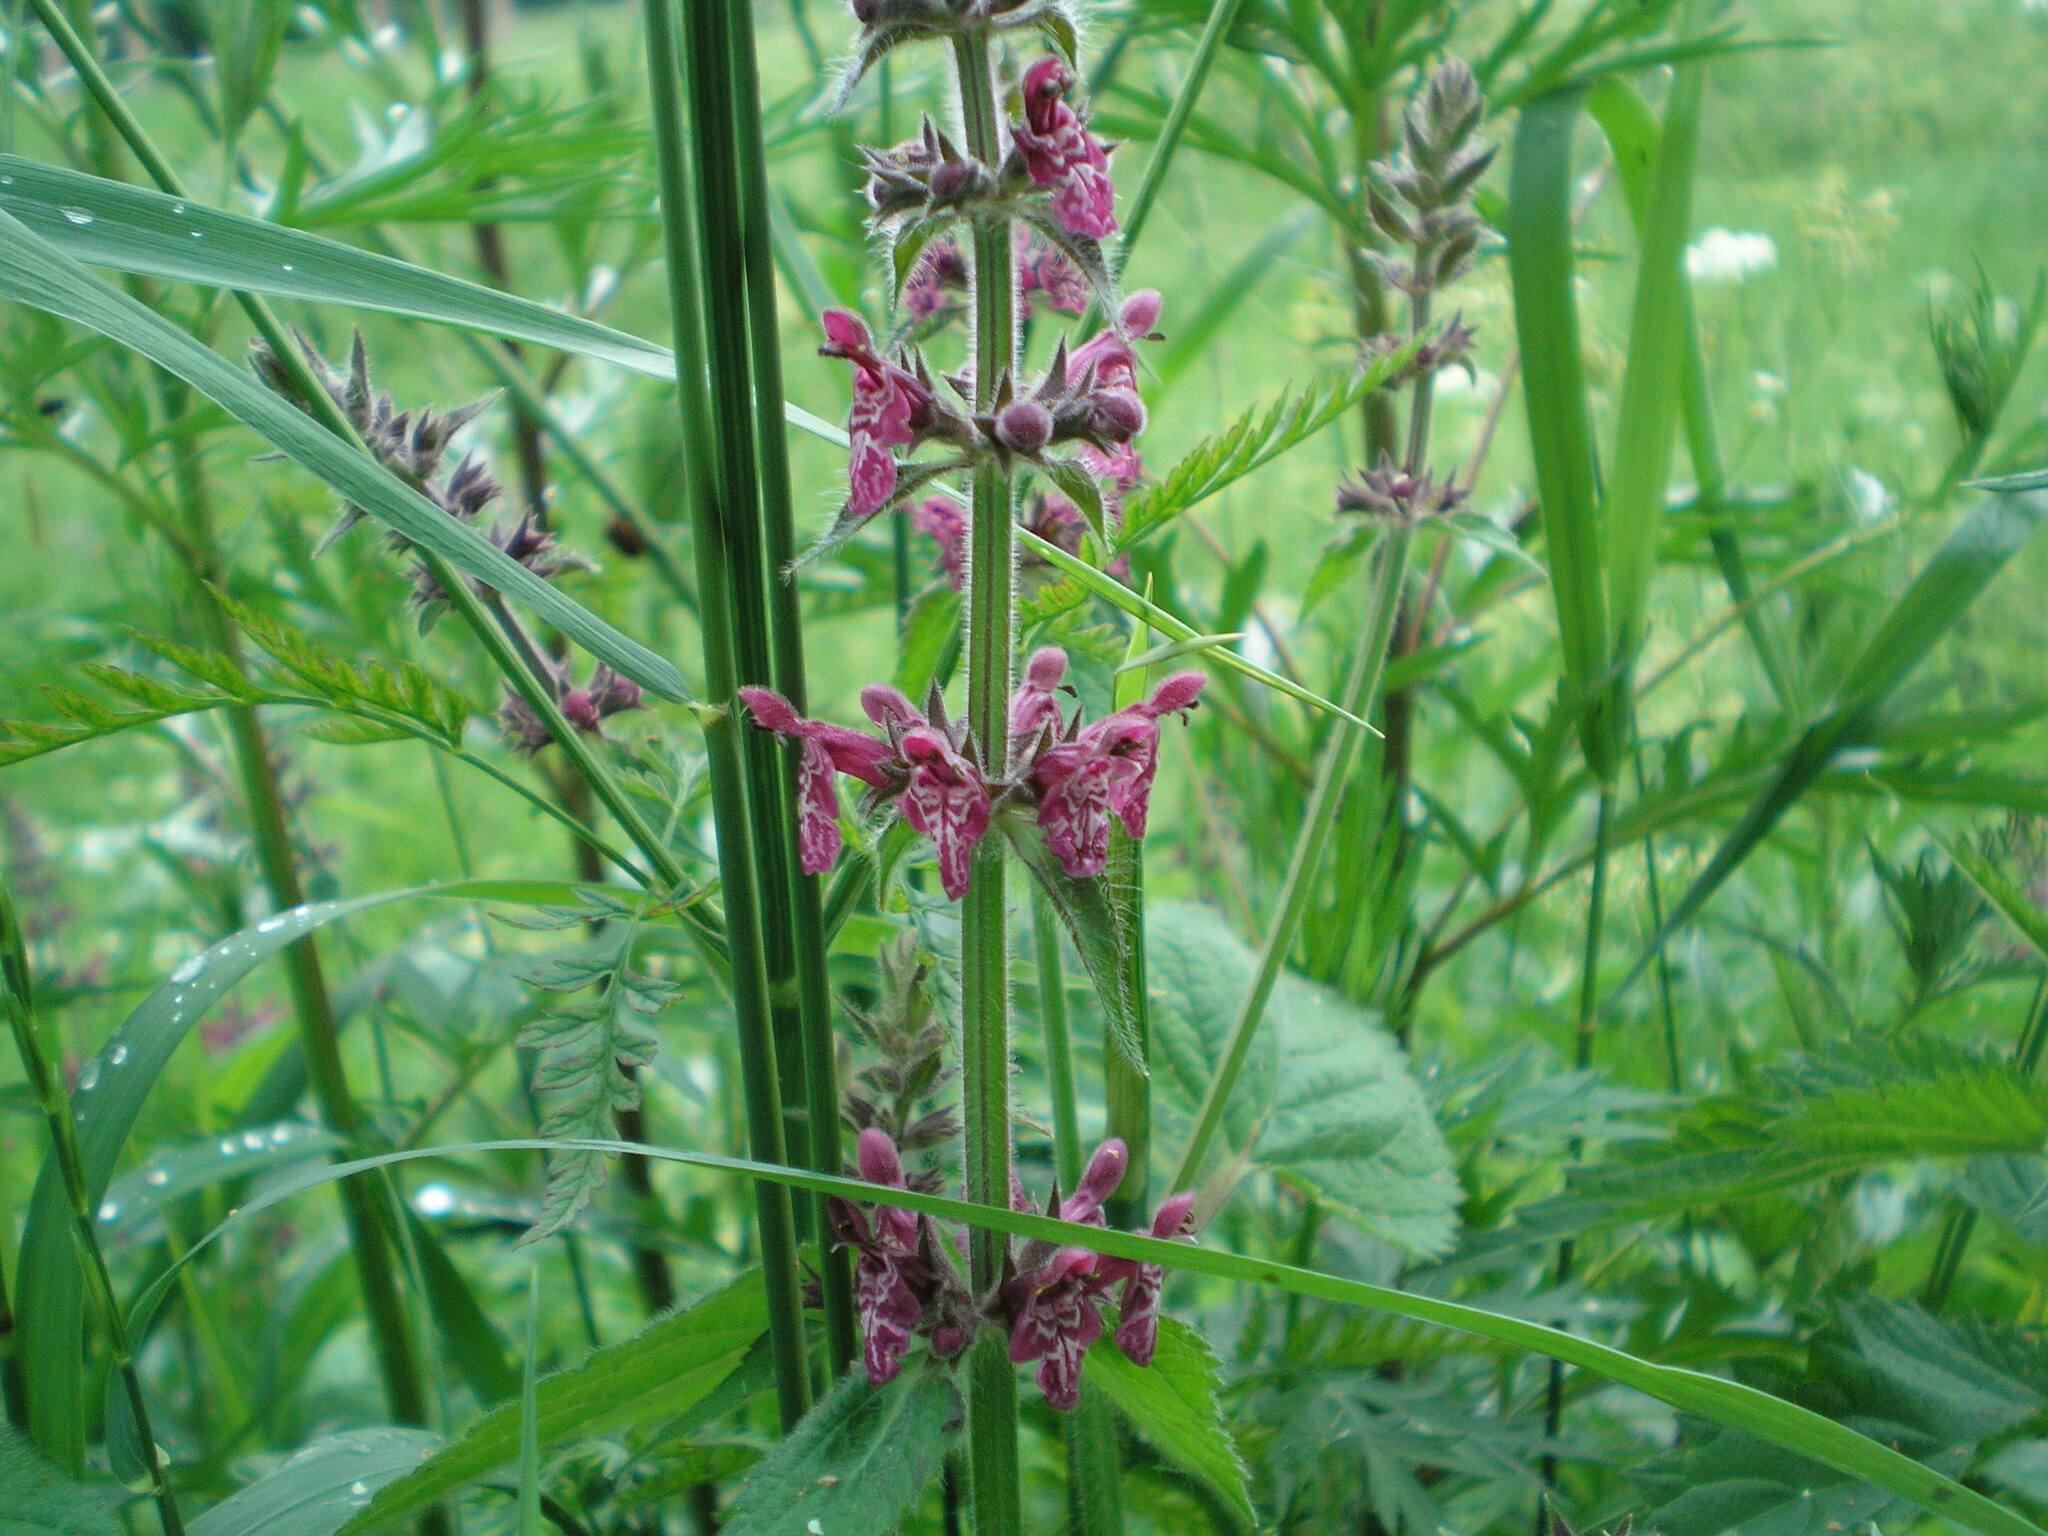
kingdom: Plantae
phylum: Tracheophyta
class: Magnoliopsida
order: Lamiales
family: Lamiaceae
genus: Stachys
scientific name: Stachys sylvatica
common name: Hedge woundwort
